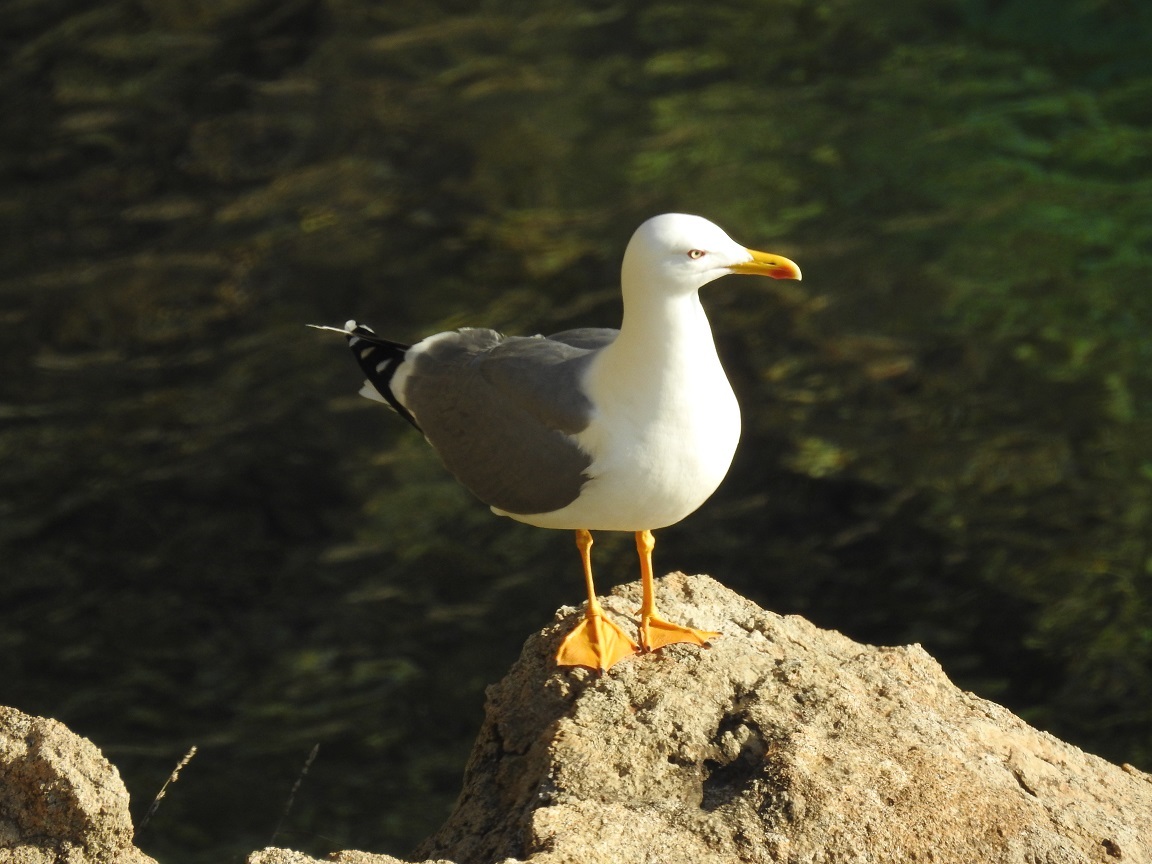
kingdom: Animalia
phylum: Chordata
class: Aves
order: Charadriiformes
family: Laridae
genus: Larus
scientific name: Larus michahellis
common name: Yellow-legged gull
